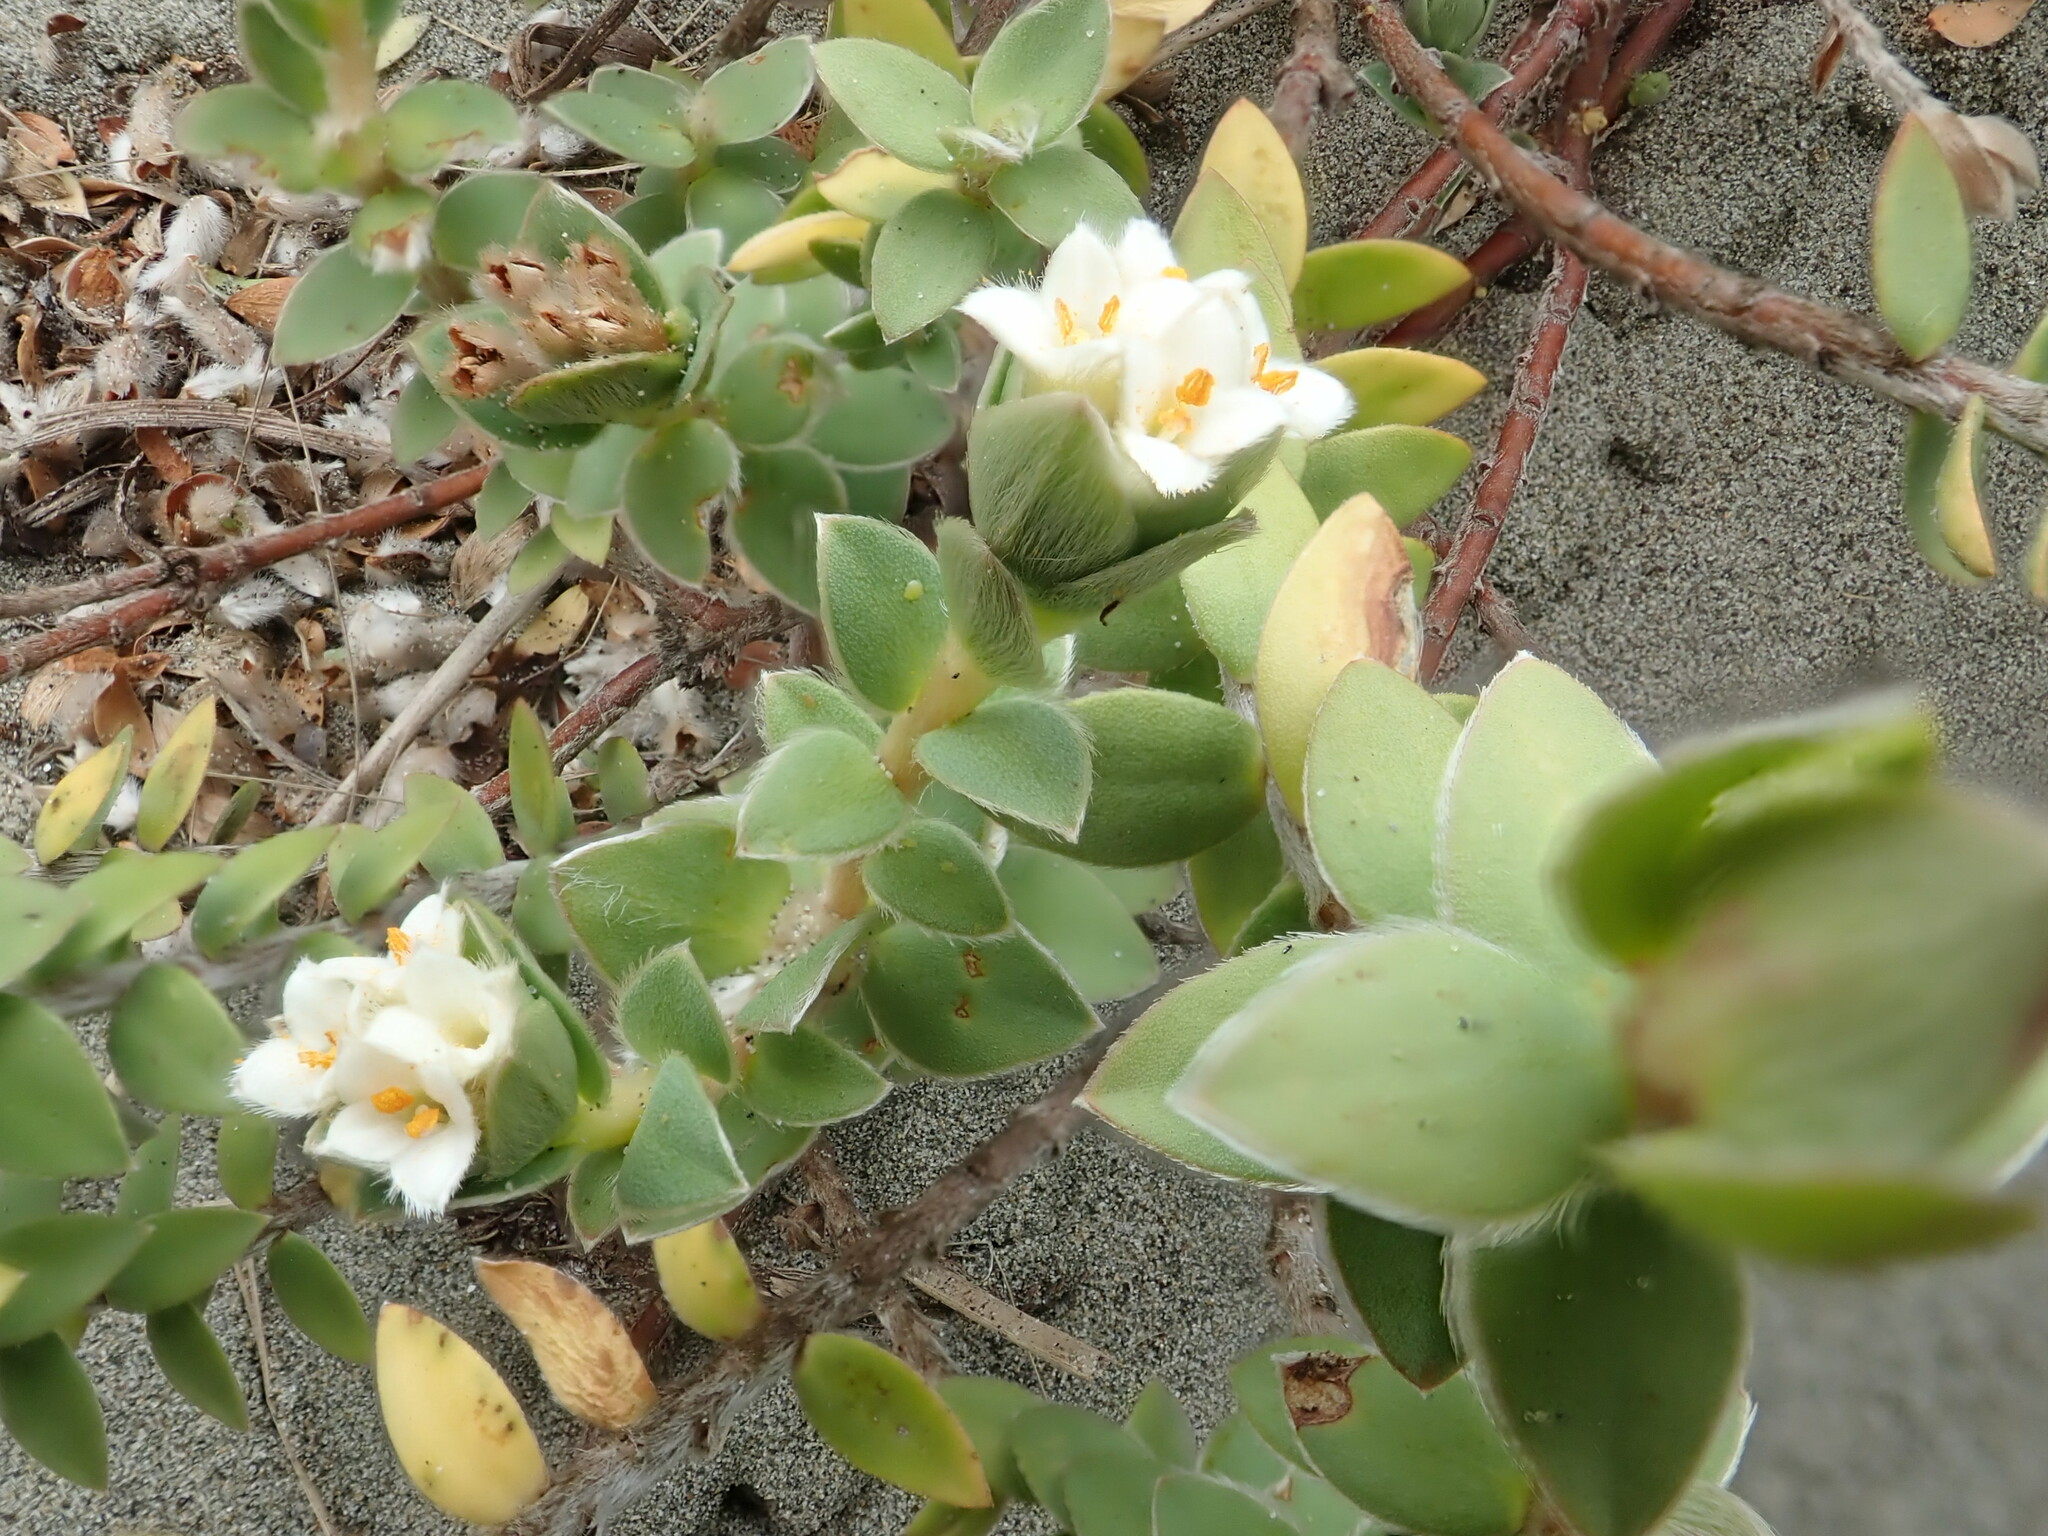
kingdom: Plantae
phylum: Tracheophyta
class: Magnoliopsida
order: Malvales
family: Thymelaeaceae
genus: Pimelea
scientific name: Pimelea villosa
